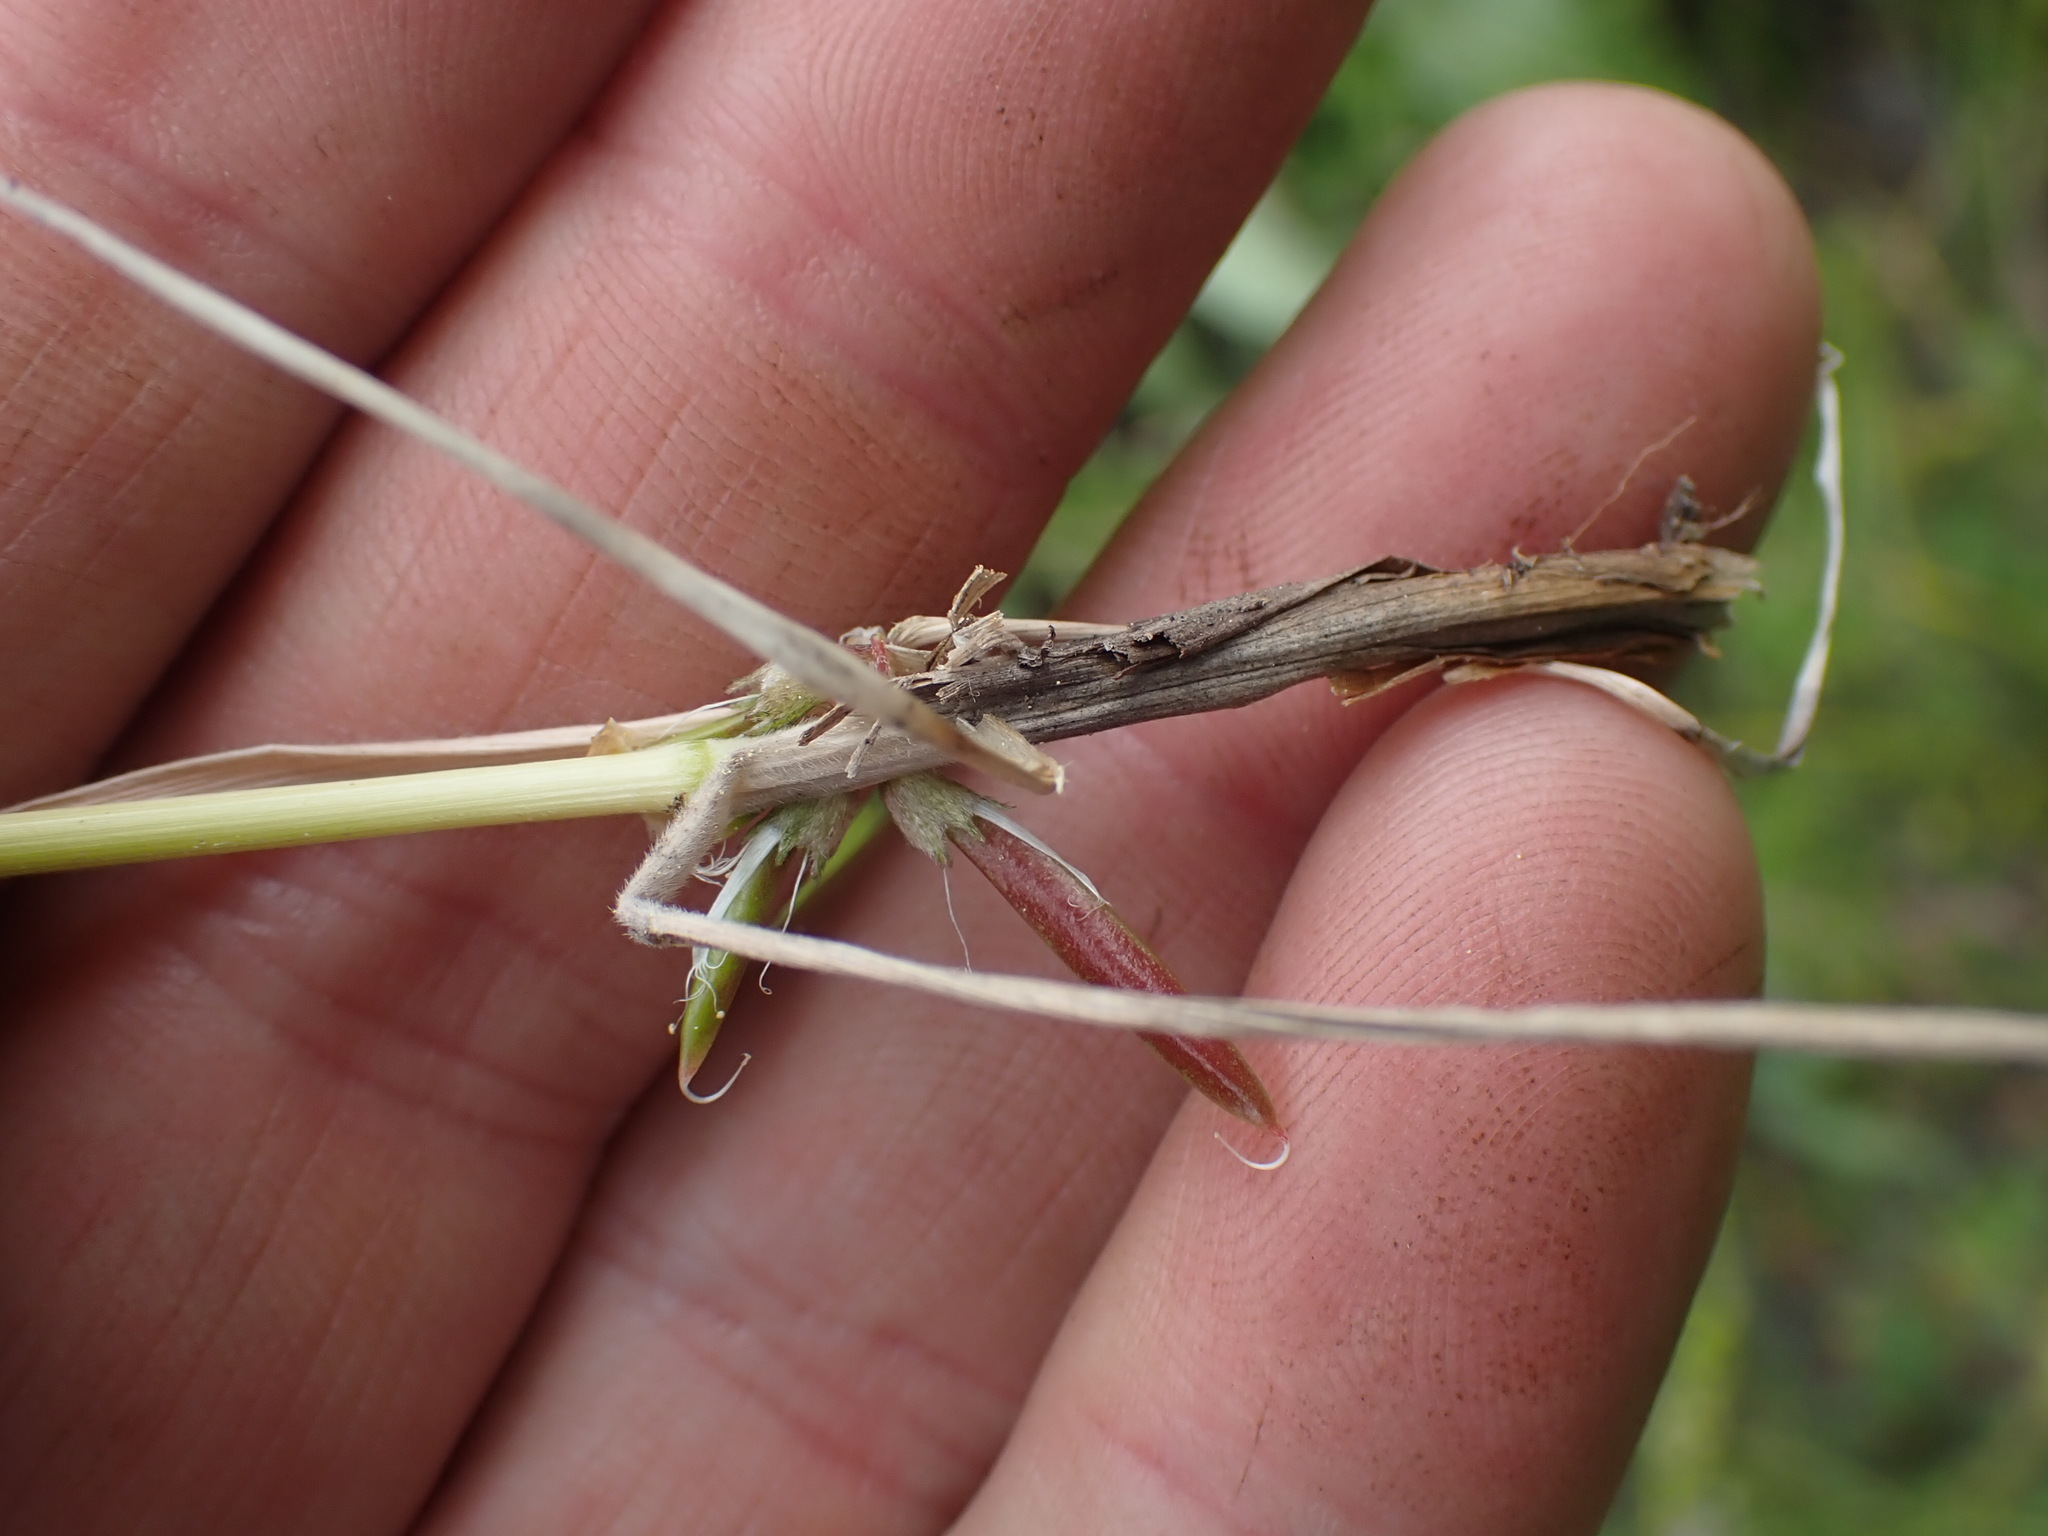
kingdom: Plantae
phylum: Tracheophyta
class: Liliopsida
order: Poales
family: Poaceae
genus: Koeleria
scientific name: Koeleria macrantha
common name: Crested hair-grass
